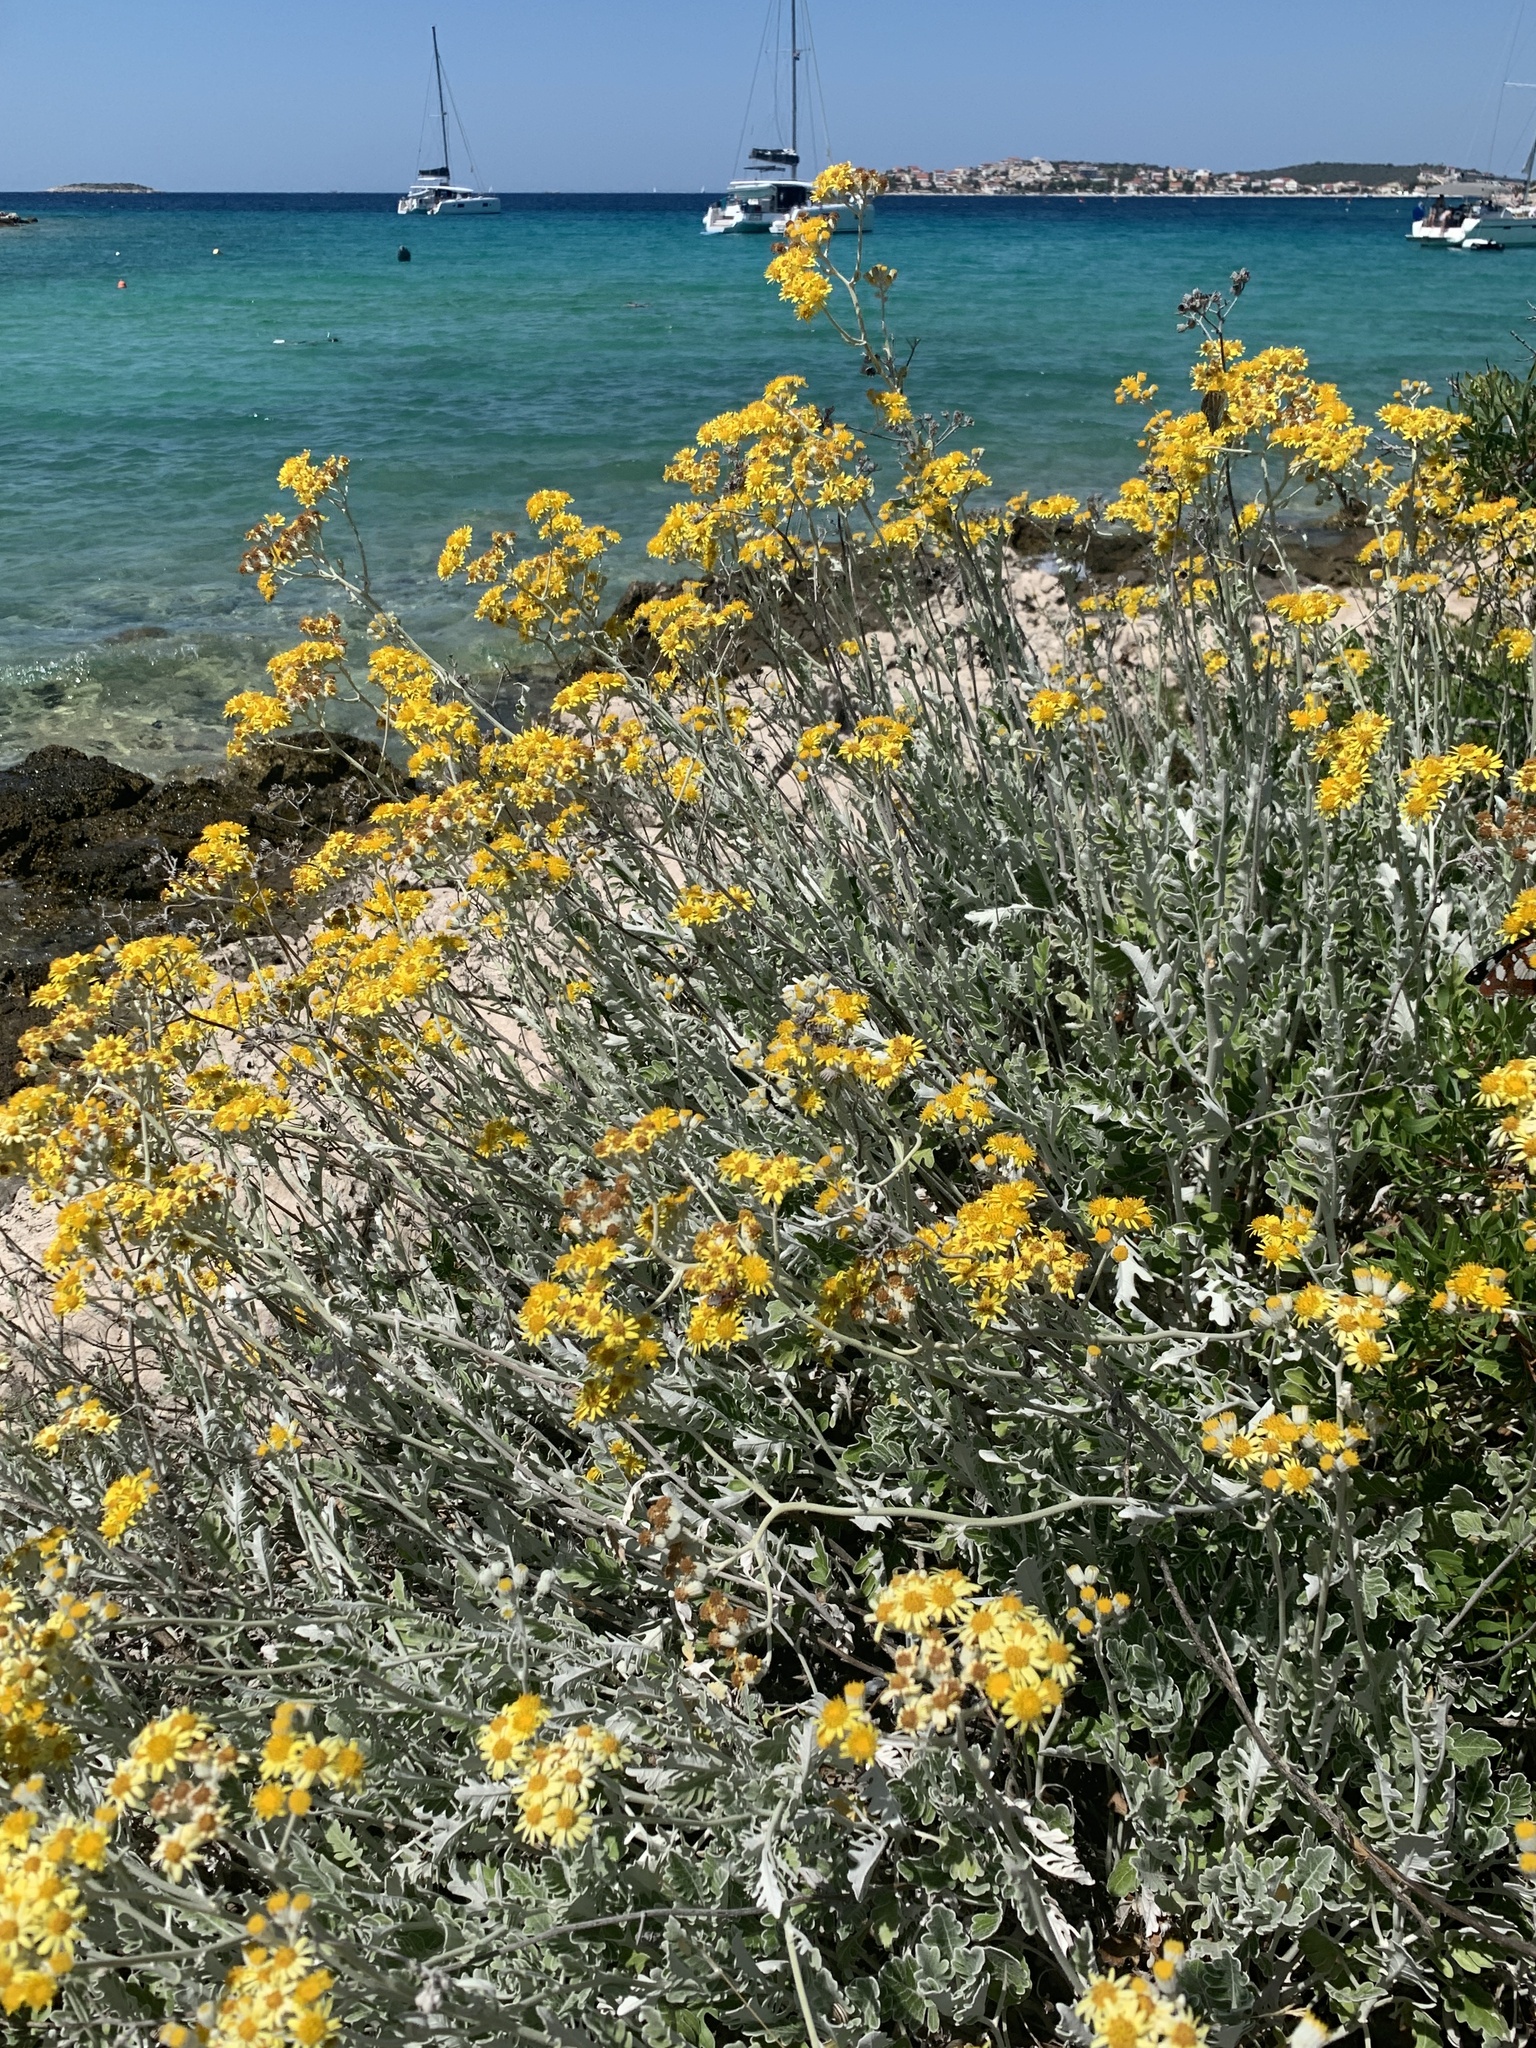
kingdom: Plantae
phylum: Tracheophyta
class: Magnoliopsida
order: Asterales
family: Asteraceae
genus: Jacobaea
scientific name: Jacobaea maritima
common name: Silver ragwort
